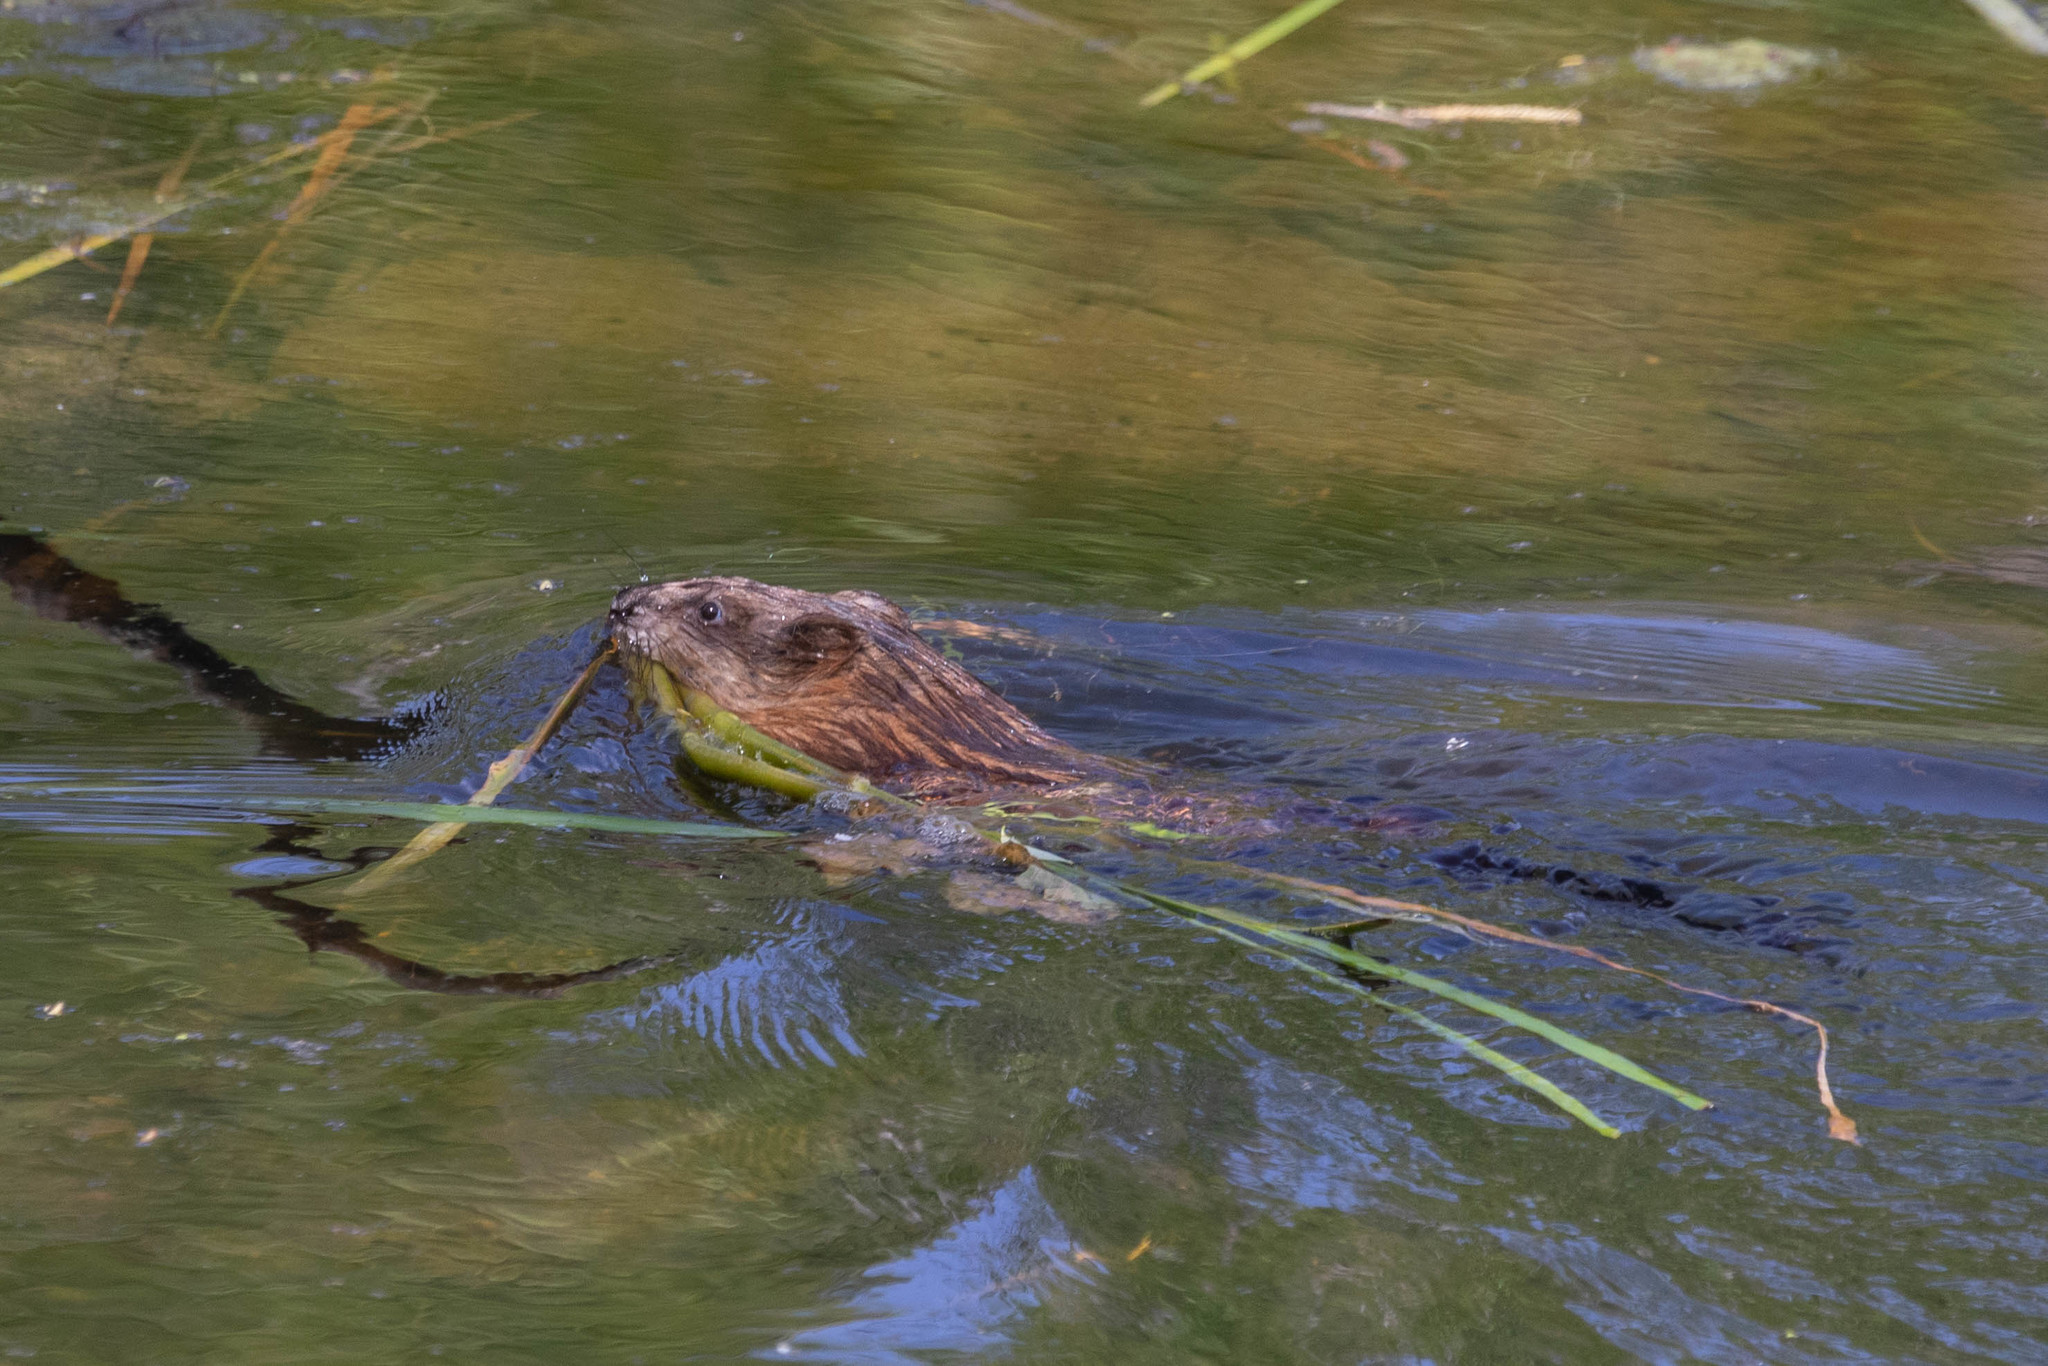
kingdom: Animalia
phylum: Chordata
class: Mammalia
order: Rodentia
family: Cricetidae
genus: Ondatra
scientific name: Ondatra zibethicus
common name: Muskrat
